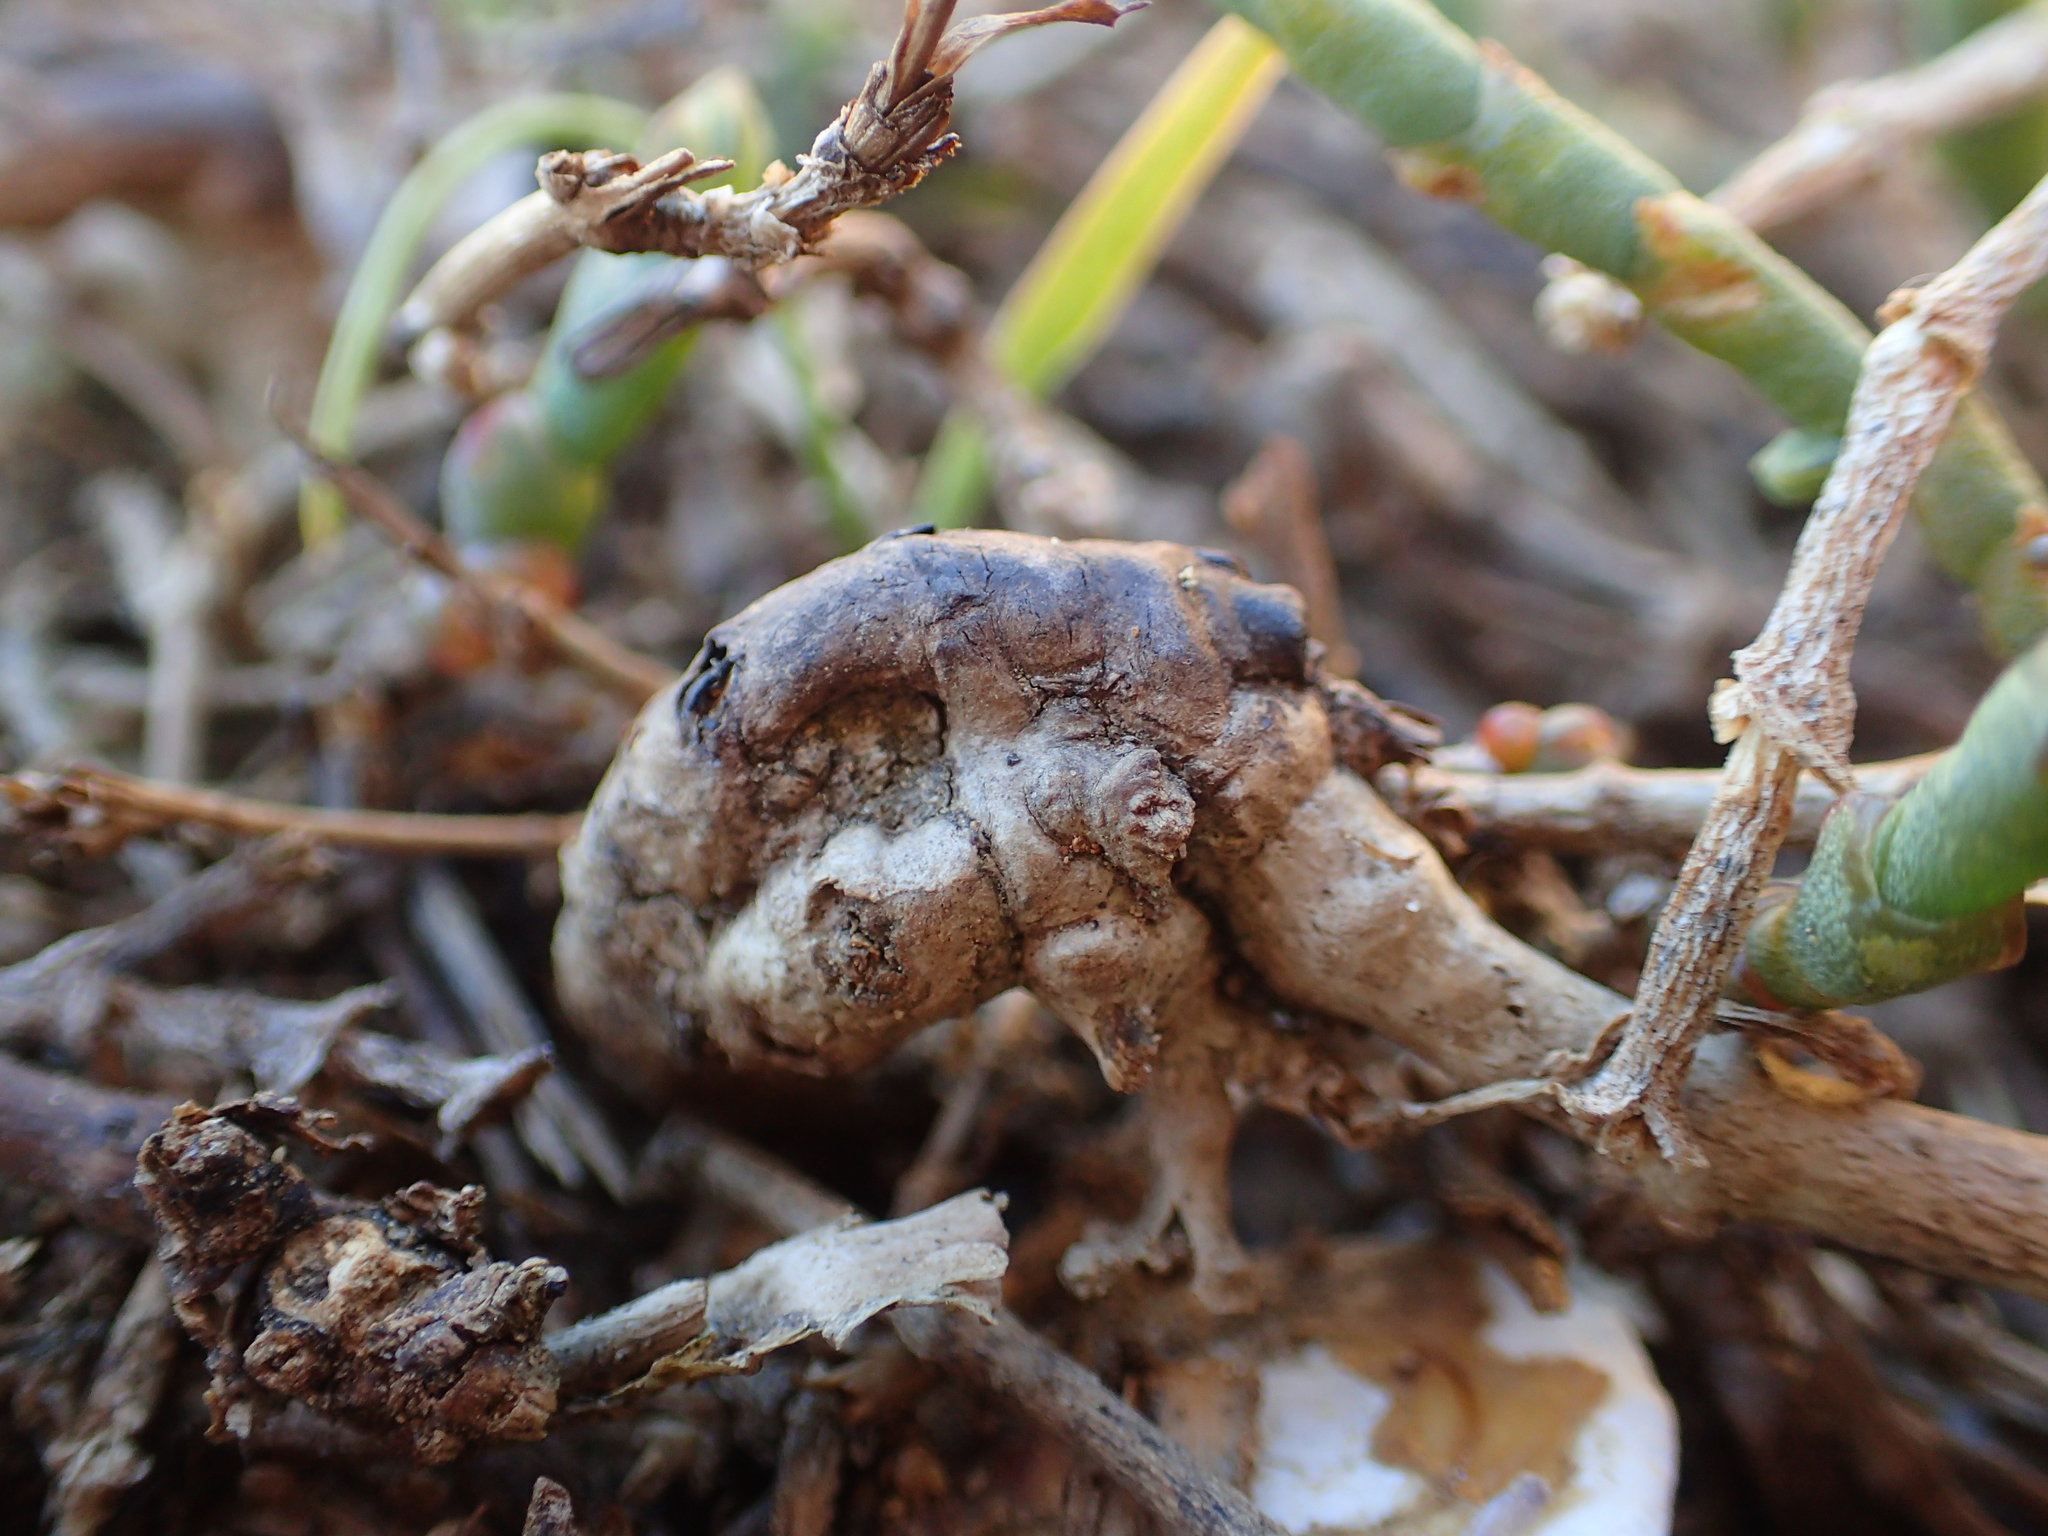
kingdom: Plantae
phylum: Tracheophyta
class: Magnoliopsida
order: Caryophyllales
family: Amaranthaceae
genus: Salicornia
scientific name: Salicornia quinqueflora
